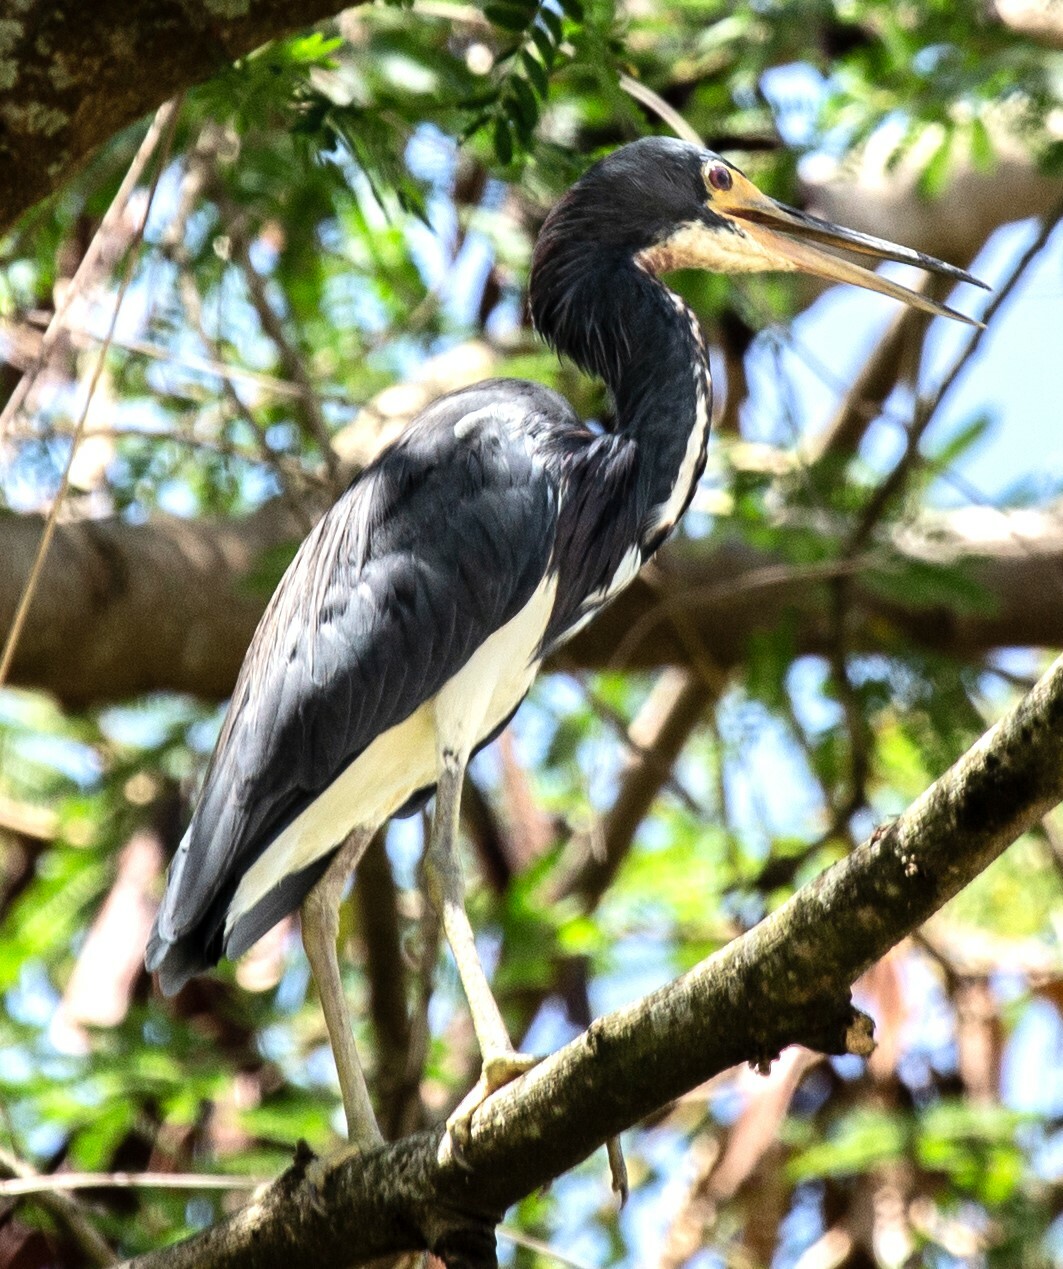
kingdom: Animalia
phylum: Chordata
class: Aves
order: Pelecaniformes
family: Ardeidae
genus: Egretta
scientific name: Egretta tricolor
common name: Tricolored heron
